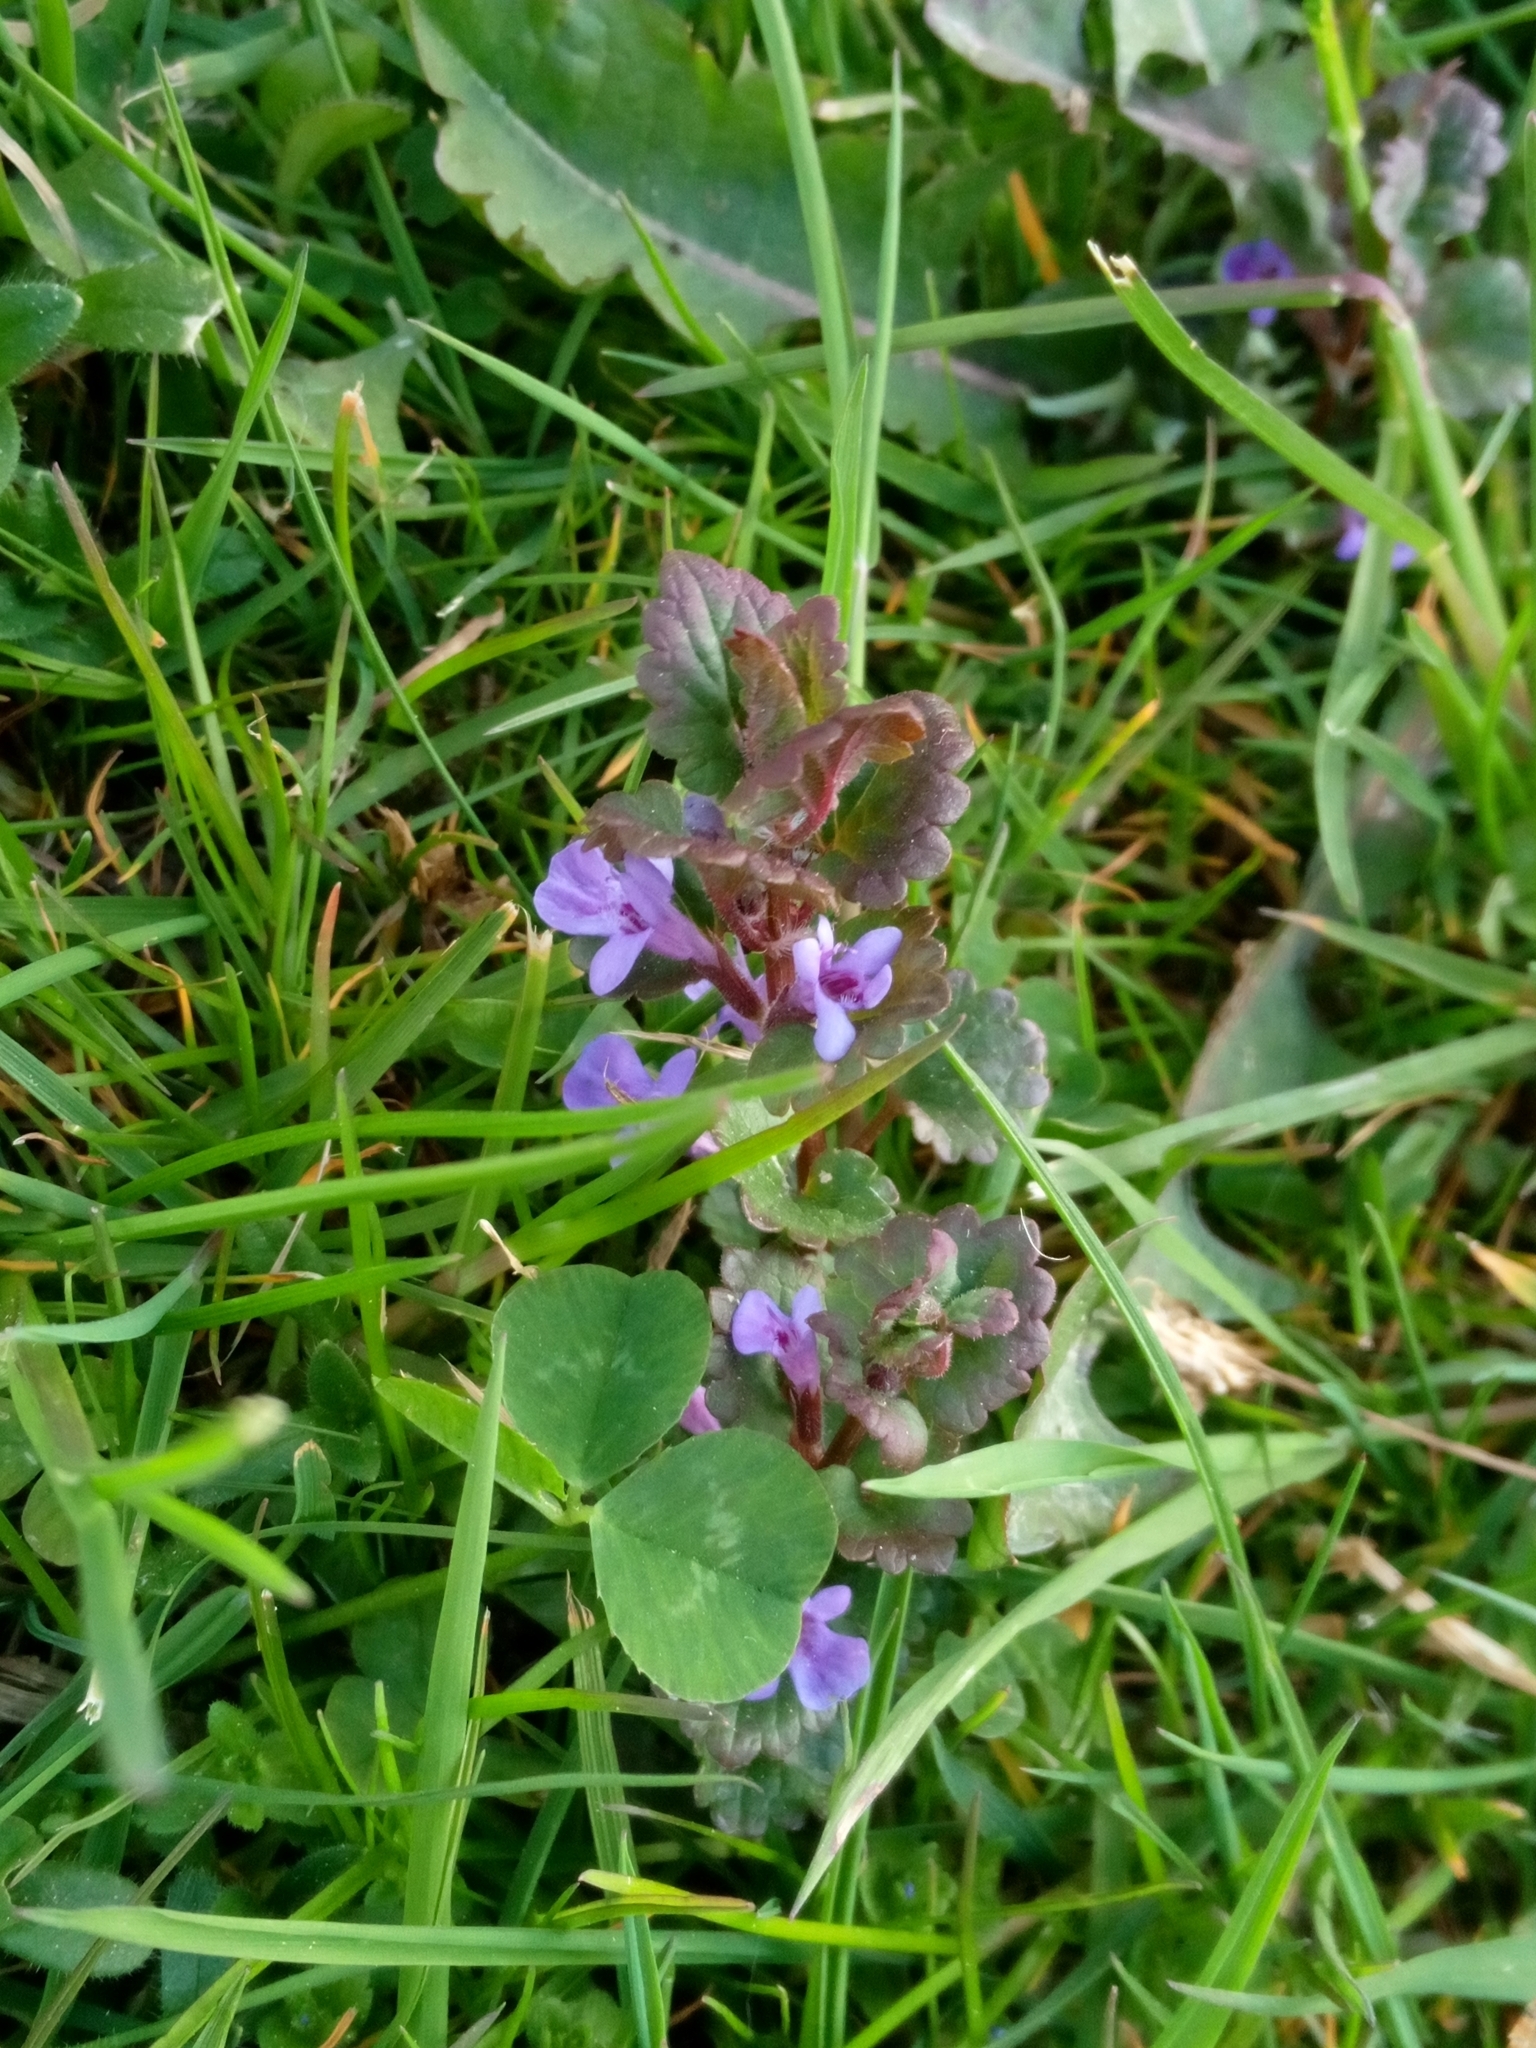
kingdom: Plantae
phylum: Tracheophyta
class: Magnoliopsida
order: Lamiales
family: Lamiaceae
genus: Glechoma
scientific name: Glechoma hederacea
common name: Ground ivy
